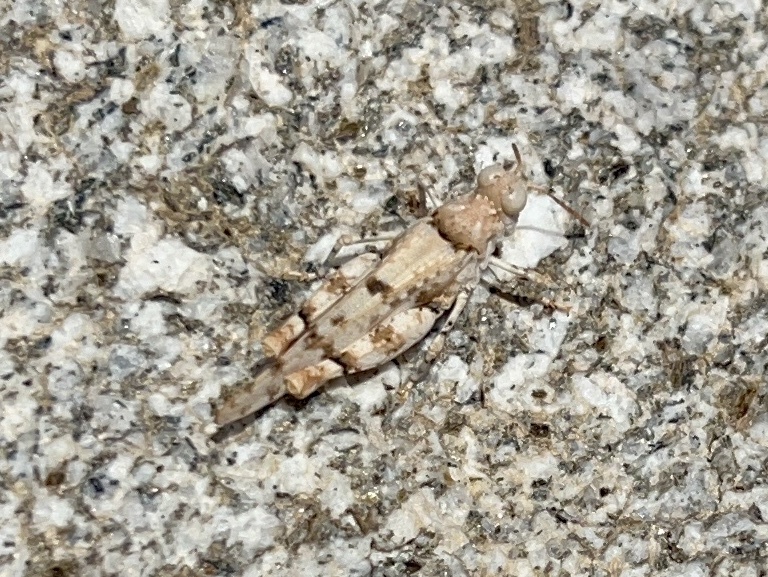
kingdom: Animalia
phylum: Arthropoda
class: Insecta
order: Orthoptera
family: Acrididae
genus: Cibolacris
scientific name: Cibolacris parviceps
